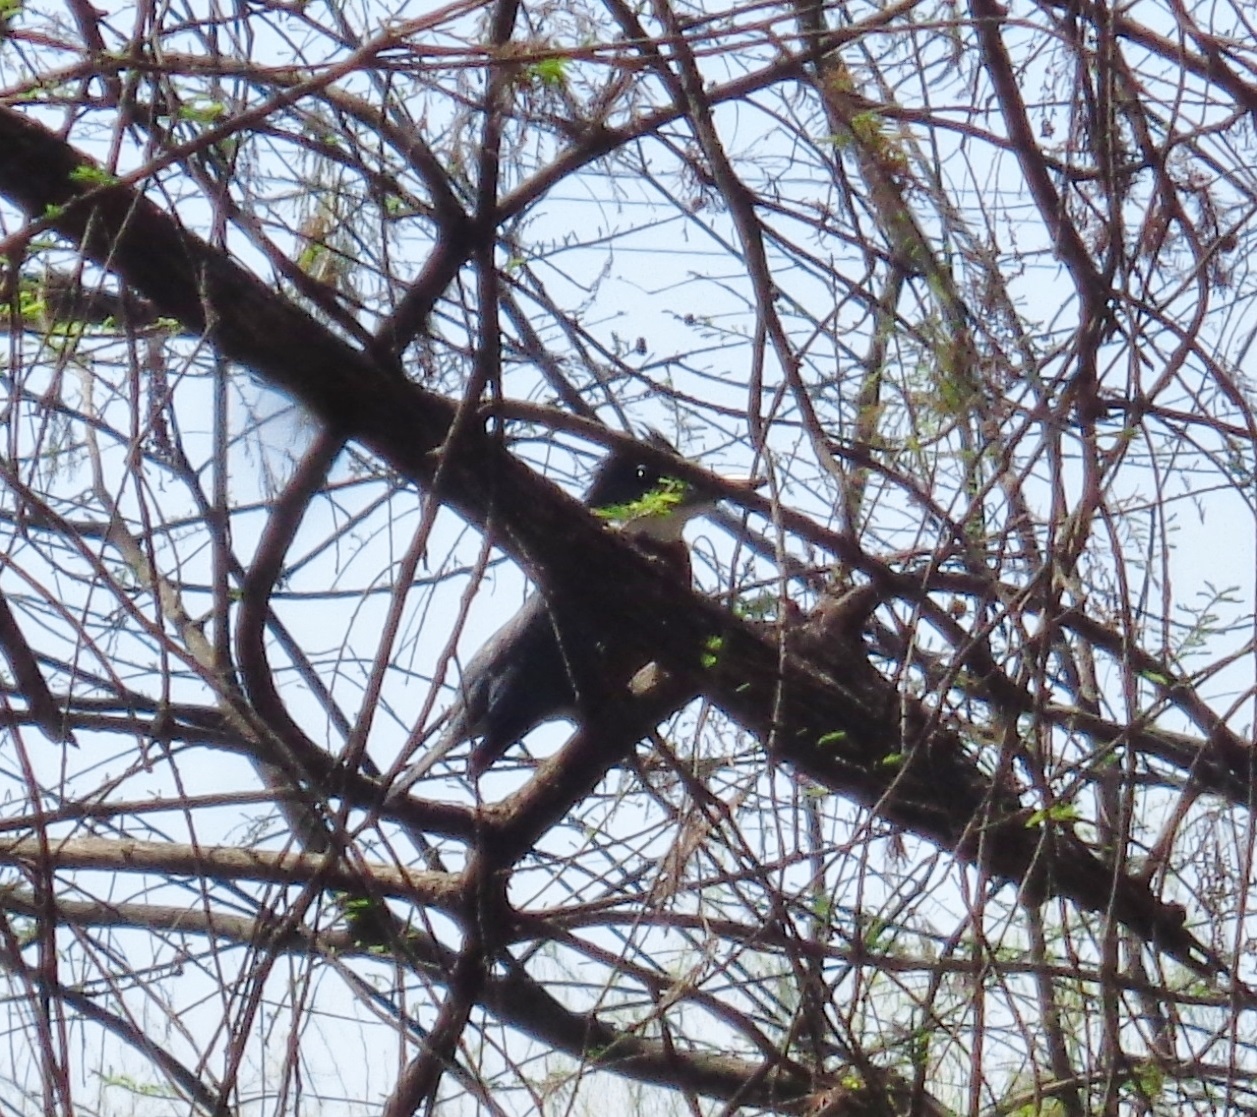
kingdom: Animalia
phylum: Chordata
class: Aves
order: Coraciiformes
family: Alcedinidae
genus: Megaceryle
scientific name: Megaceryle alcyon
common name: Belted kingfisher
